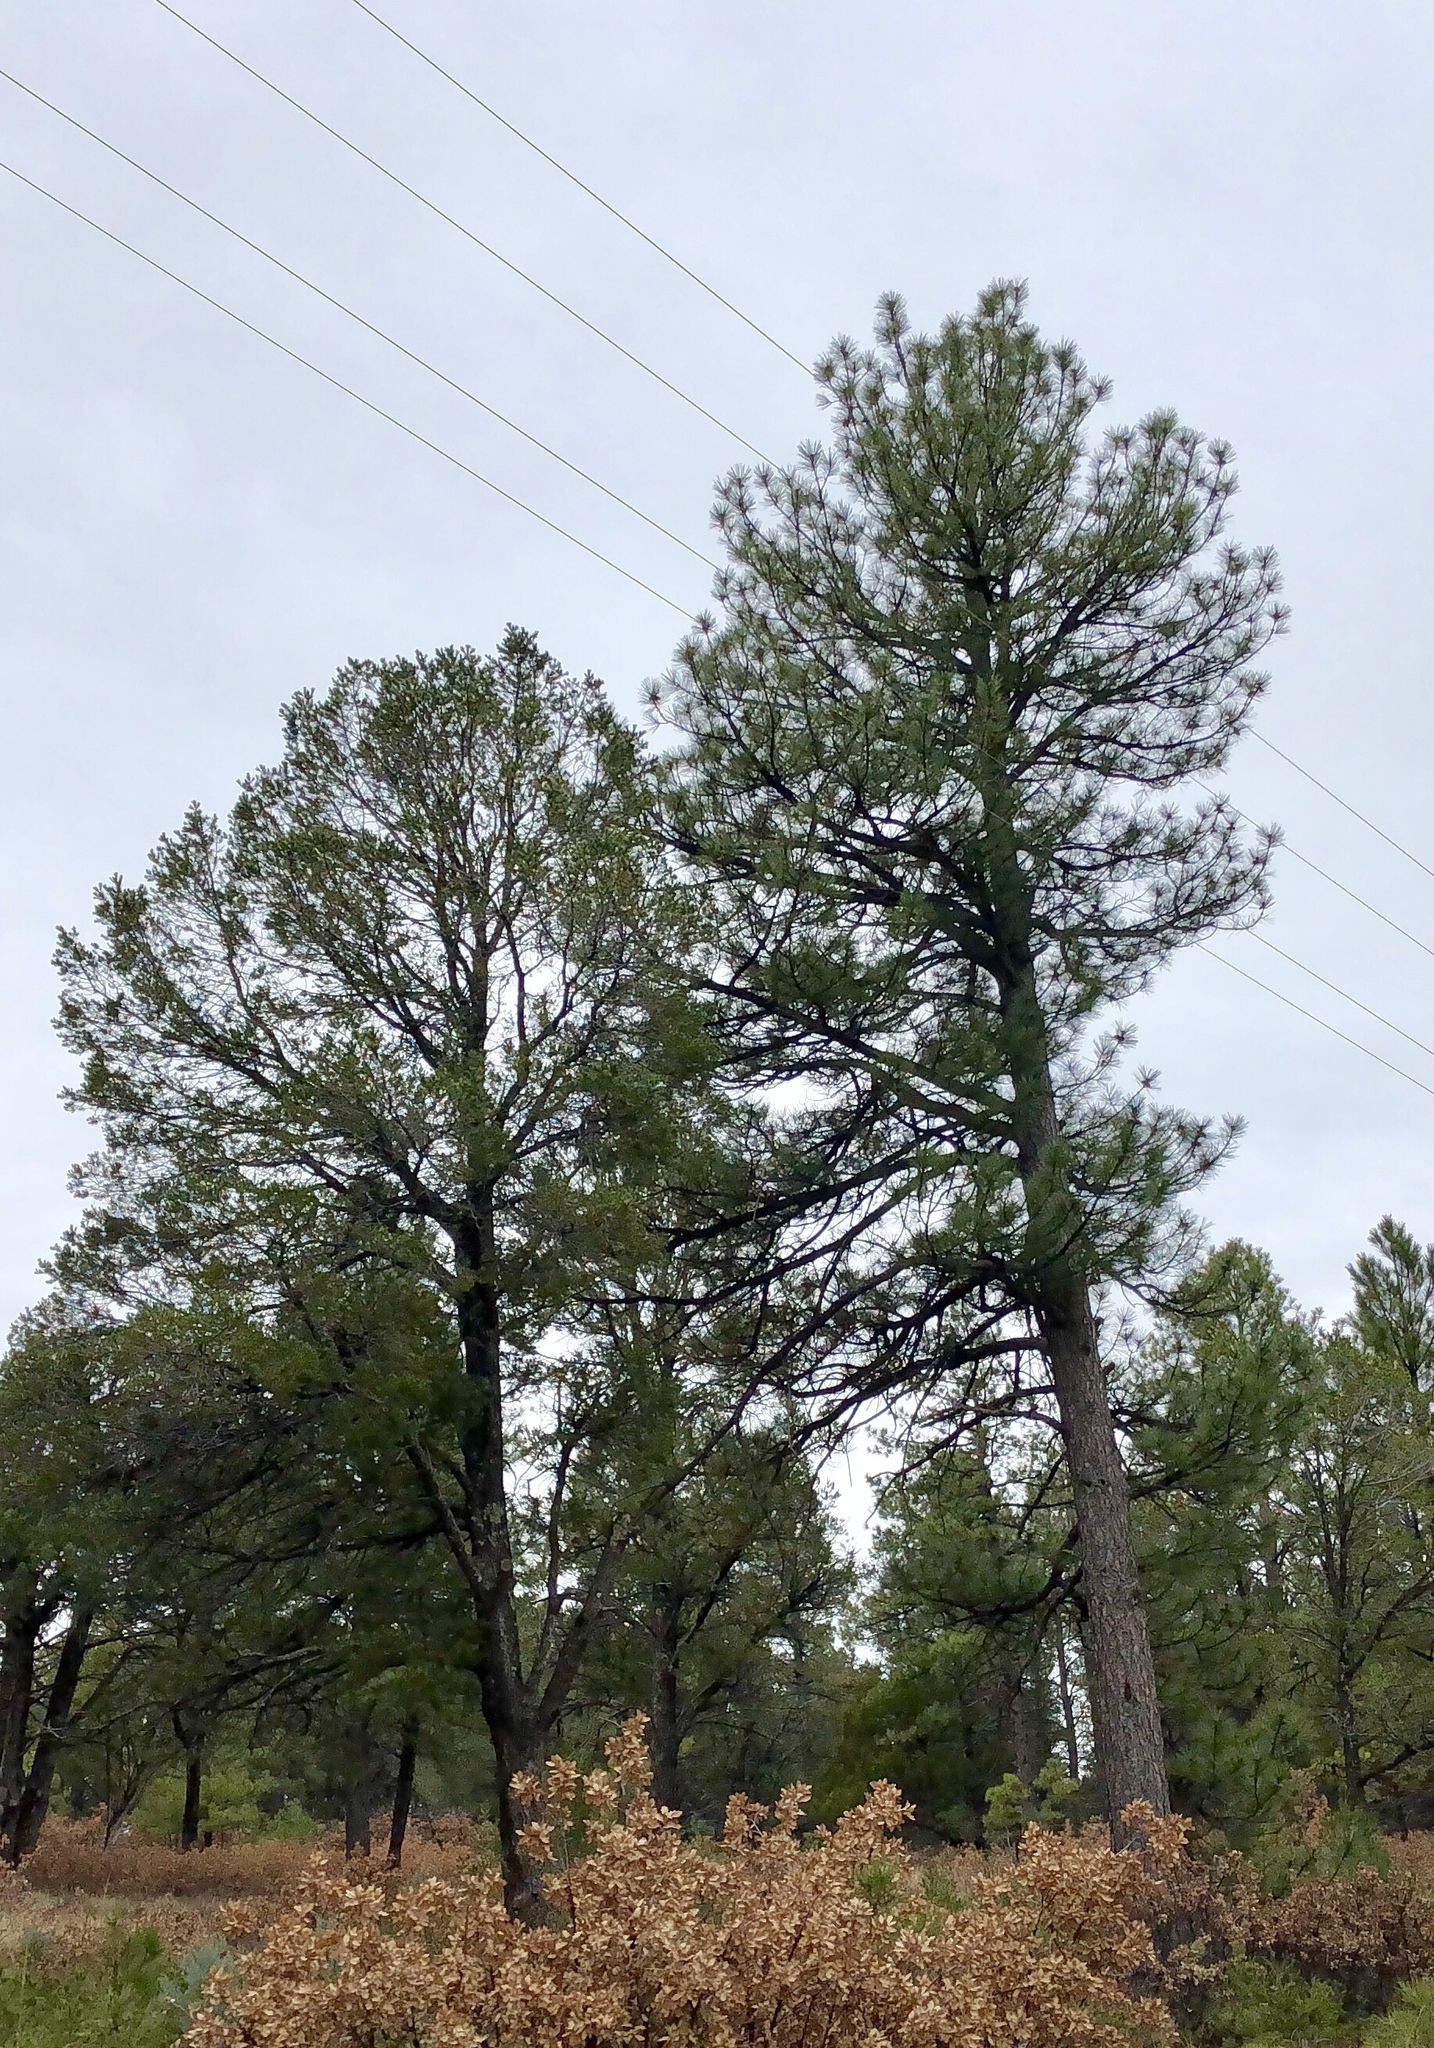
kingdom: Plantae
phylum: Tracheophyta
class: Pinopsida
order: Pinales
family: Pinaceae
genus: Pinus
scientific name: Pinus ponderosa
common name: Western yellow-pine
